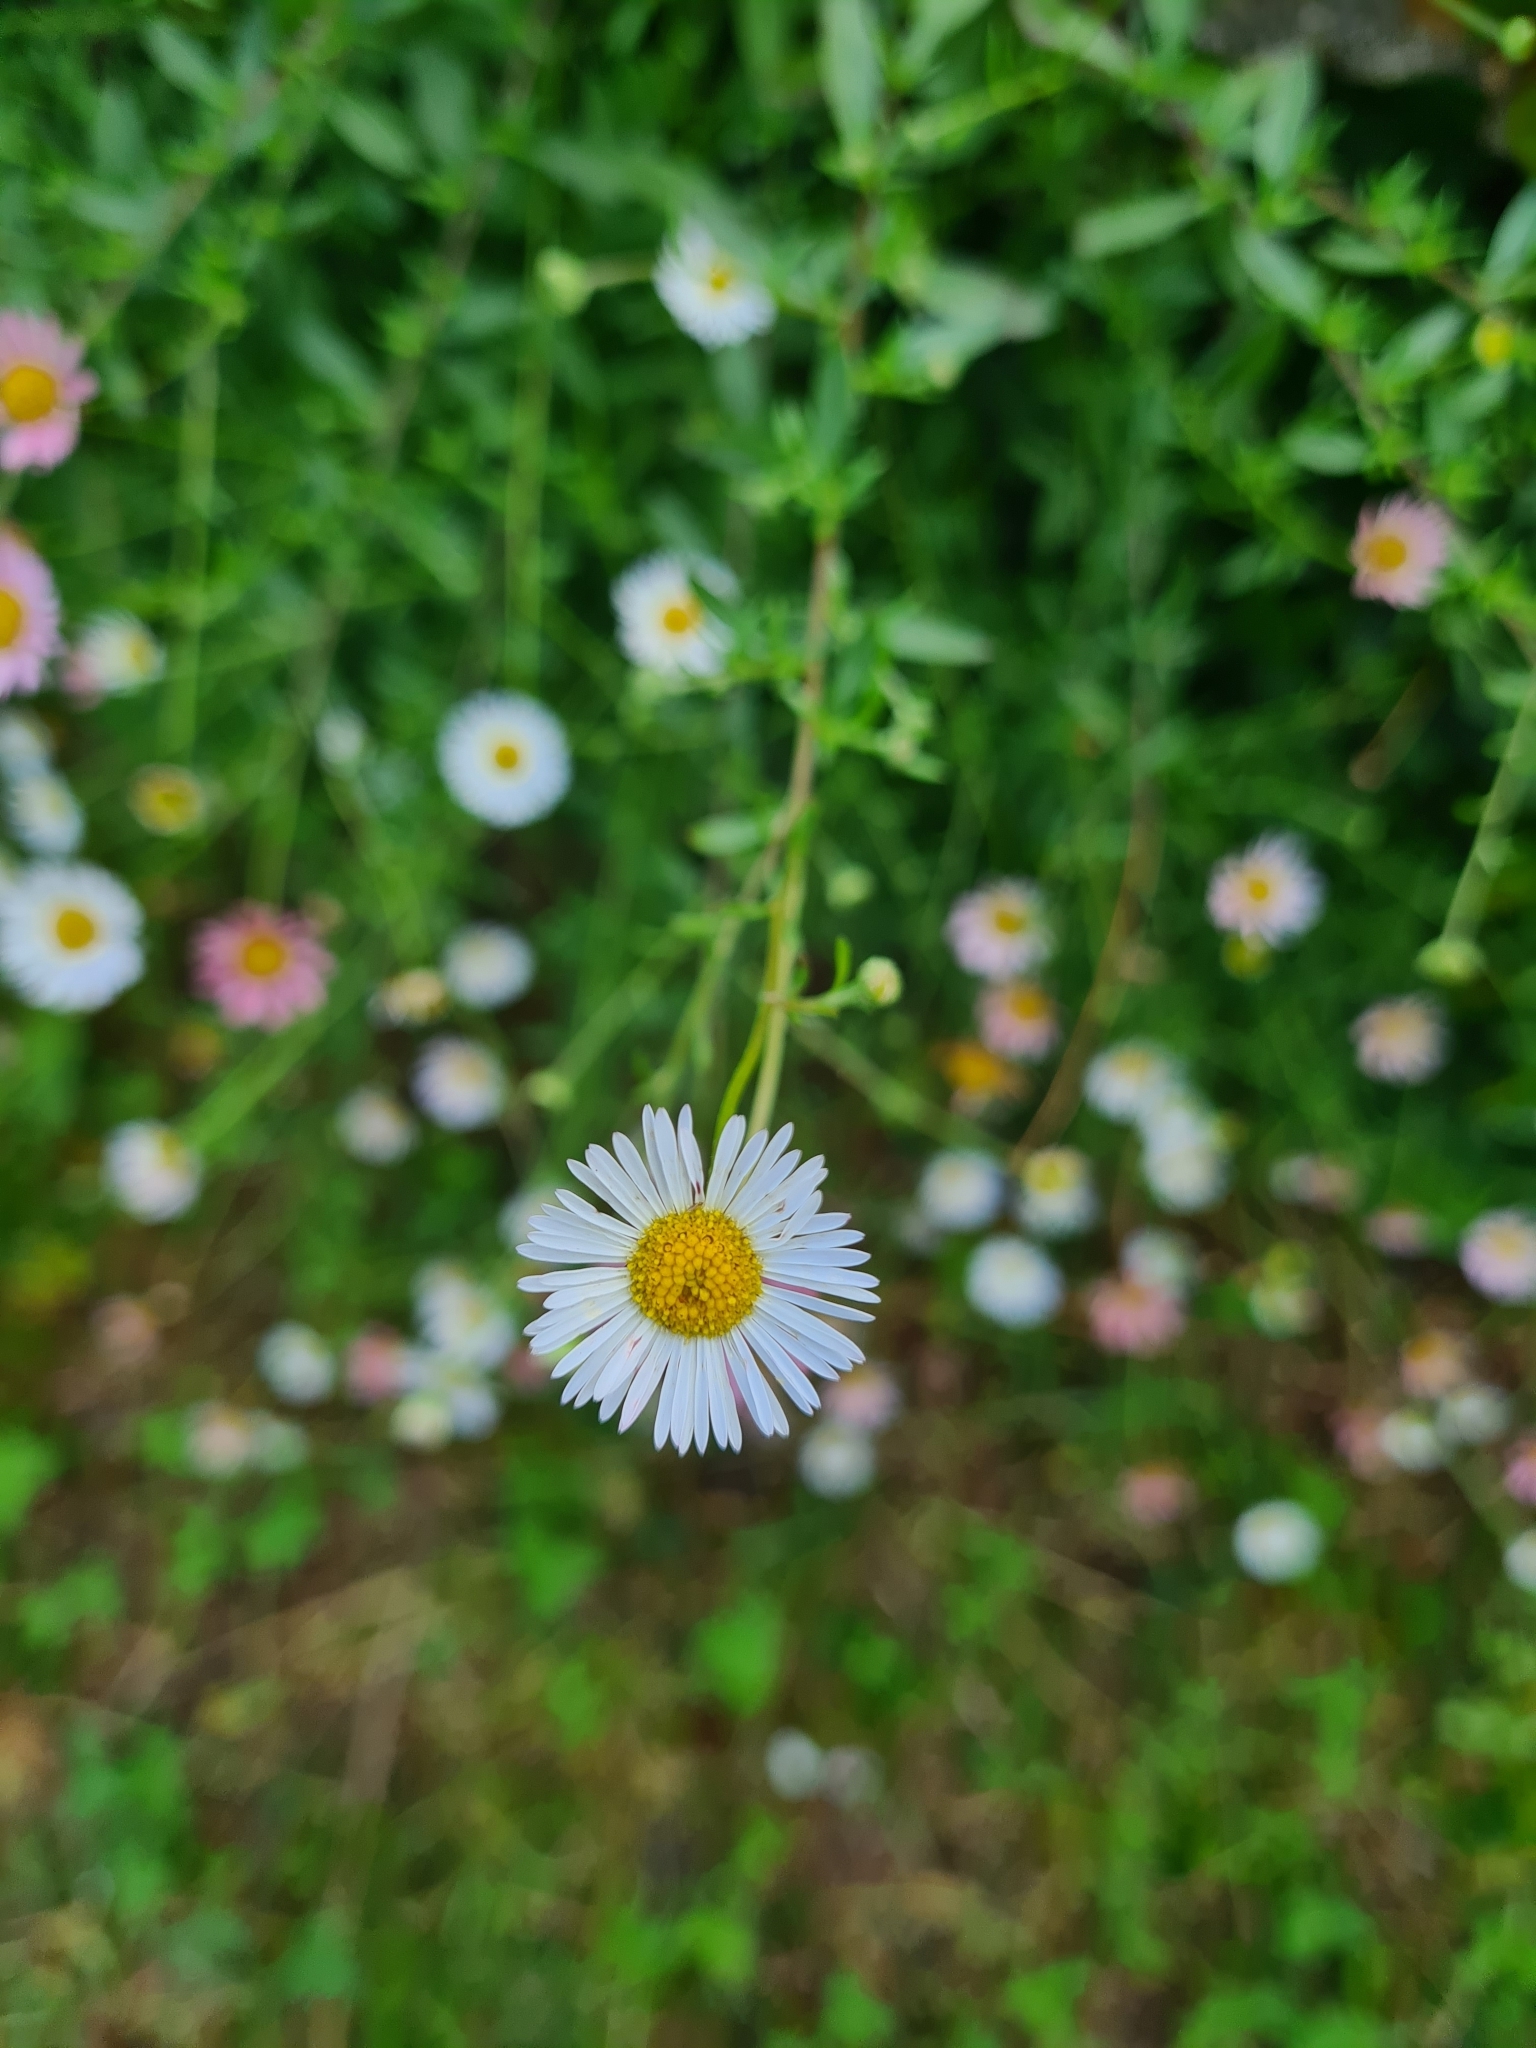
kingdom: Plantae
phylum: Tracheophyta
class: Magnoliopsida
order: Asterales
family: Asteraceae
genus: Erigeron
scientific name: Erigeron karvinskianus
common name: Mexican fleabane
